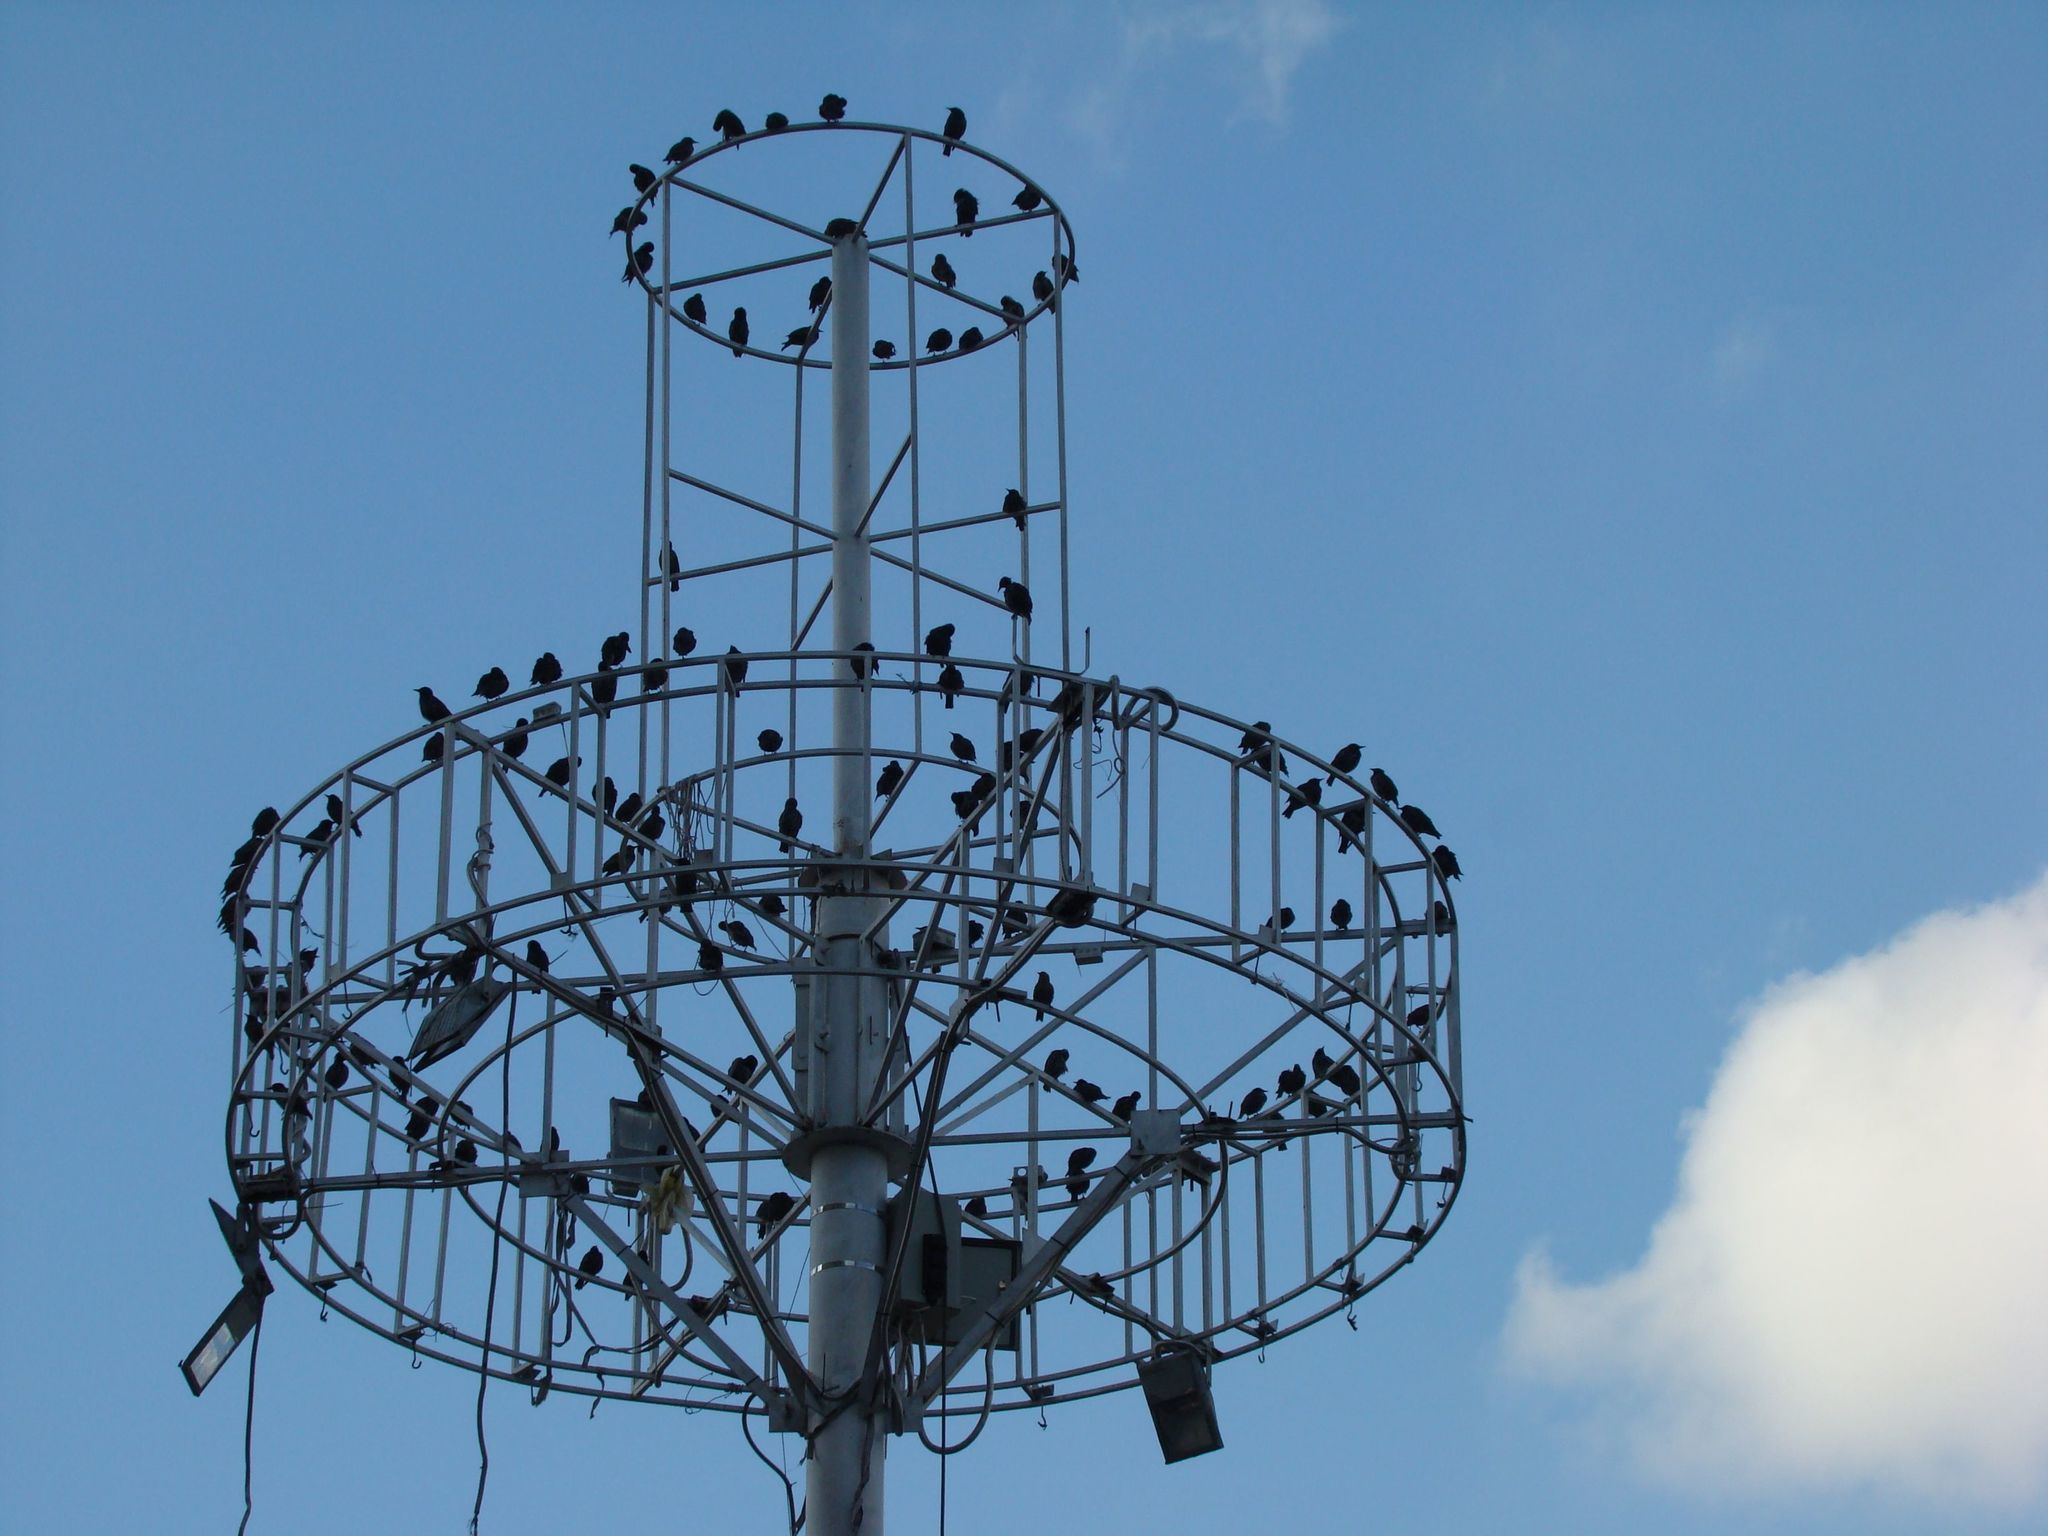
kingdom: Animalia
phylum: Chordata
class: Aves
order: Passeriformes
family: Sturnidae
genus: Sturnus
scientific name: Sturnus vulgaris
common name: Common starling
